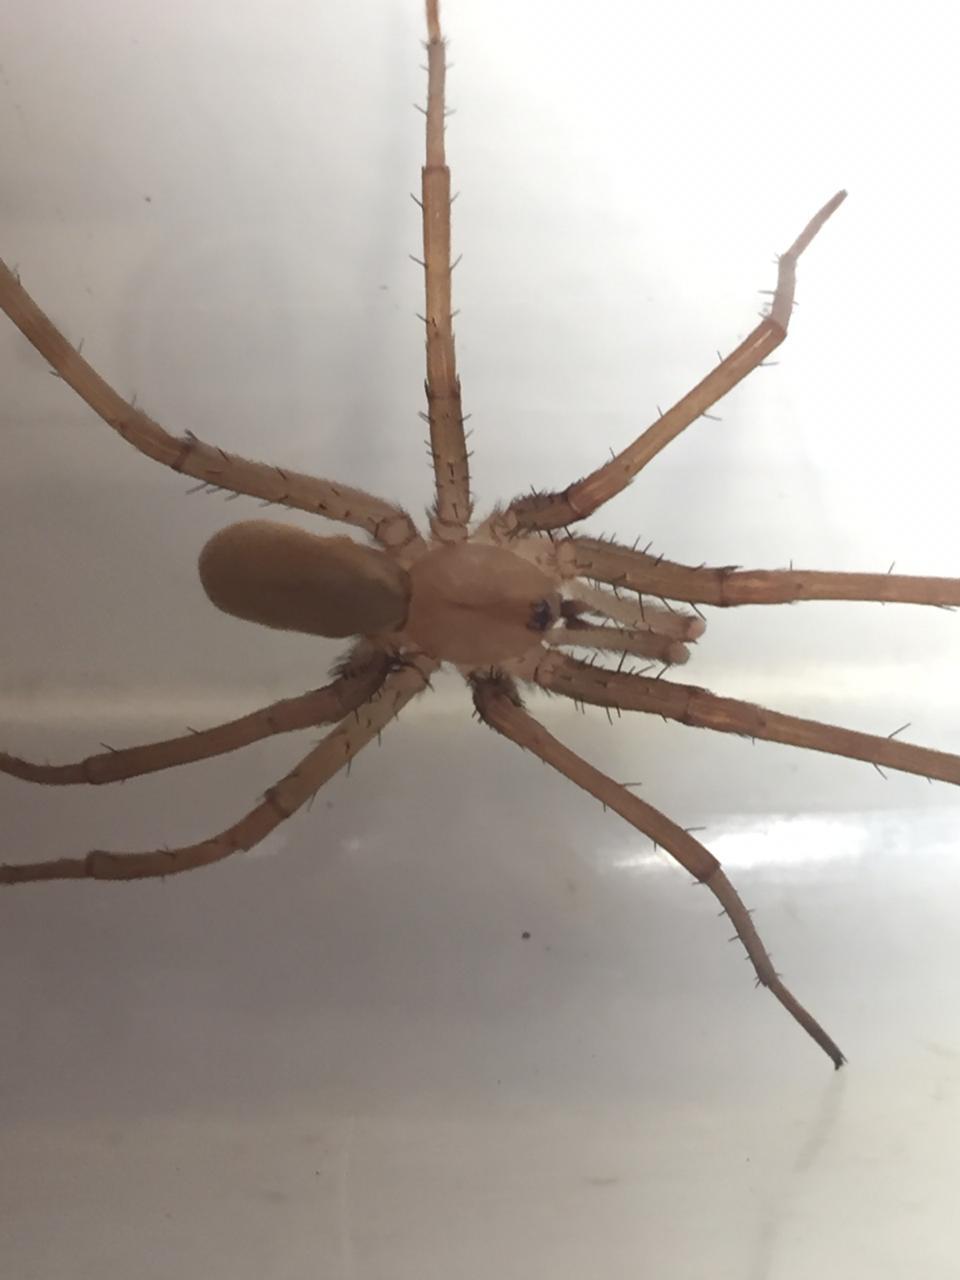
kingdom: Animalia
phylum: Arthropoda
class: Arachnida
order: Araneae
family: Filistatidae
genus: Kukulcania
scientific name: Kukulcania hibernalis
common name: Crevice weaver
